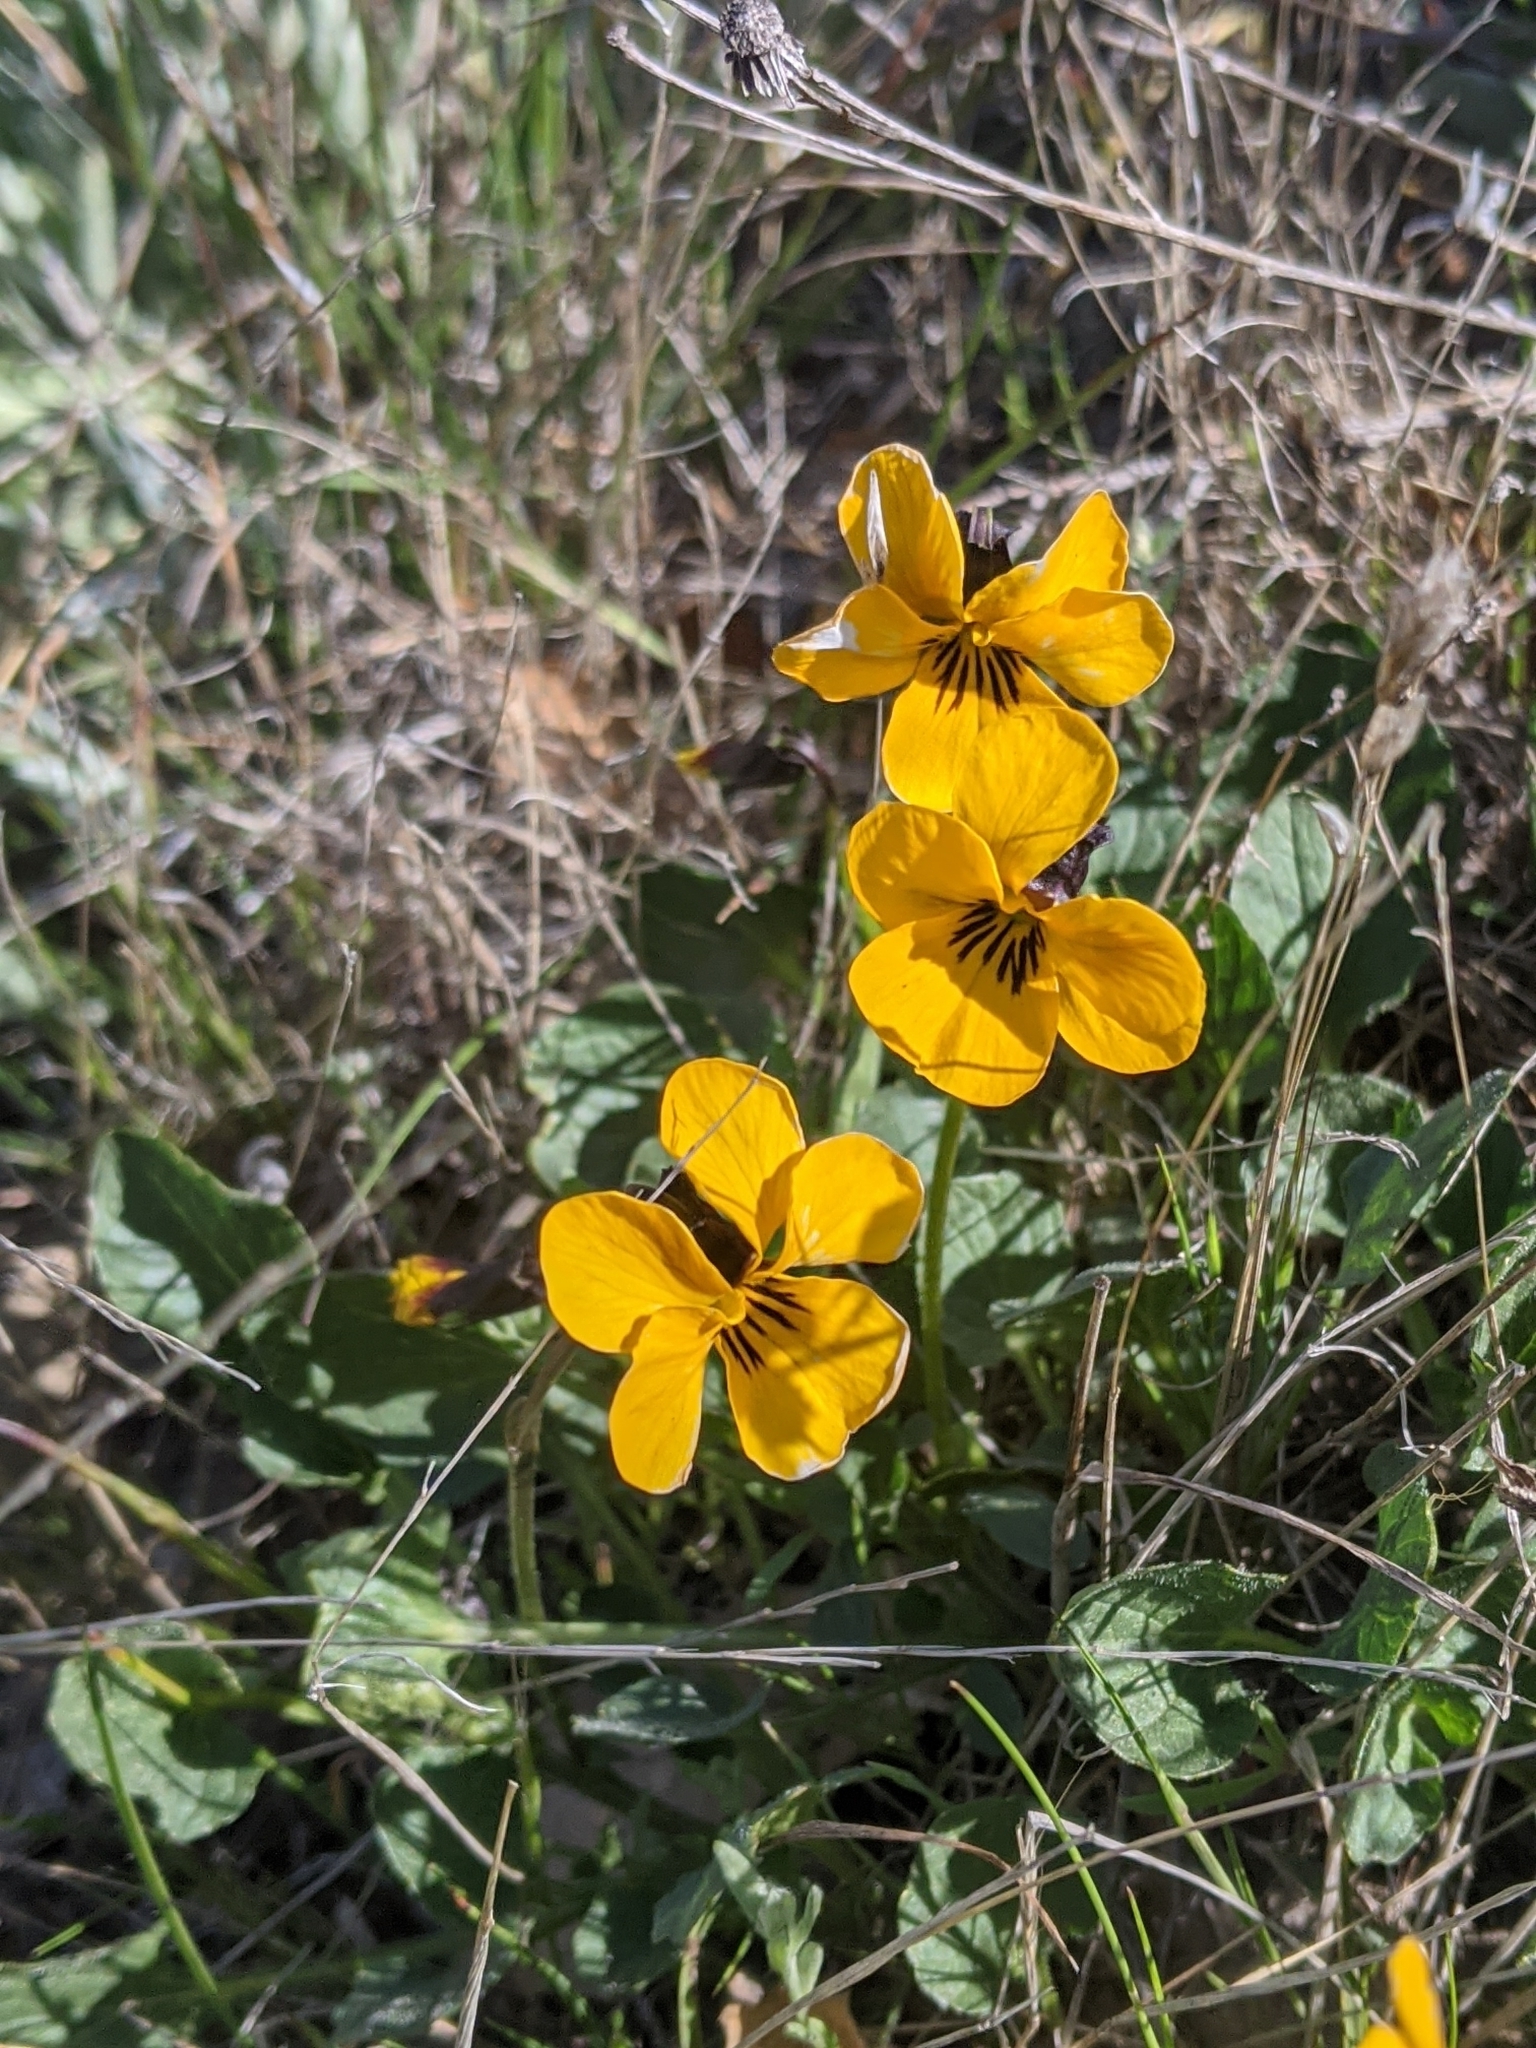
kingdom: Plantae
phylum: Tracheophyta
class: Magnoliopsida
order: Malpighiales
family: Violaceae
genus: Viola
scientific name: Viola pedunculata
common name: California golden violet
